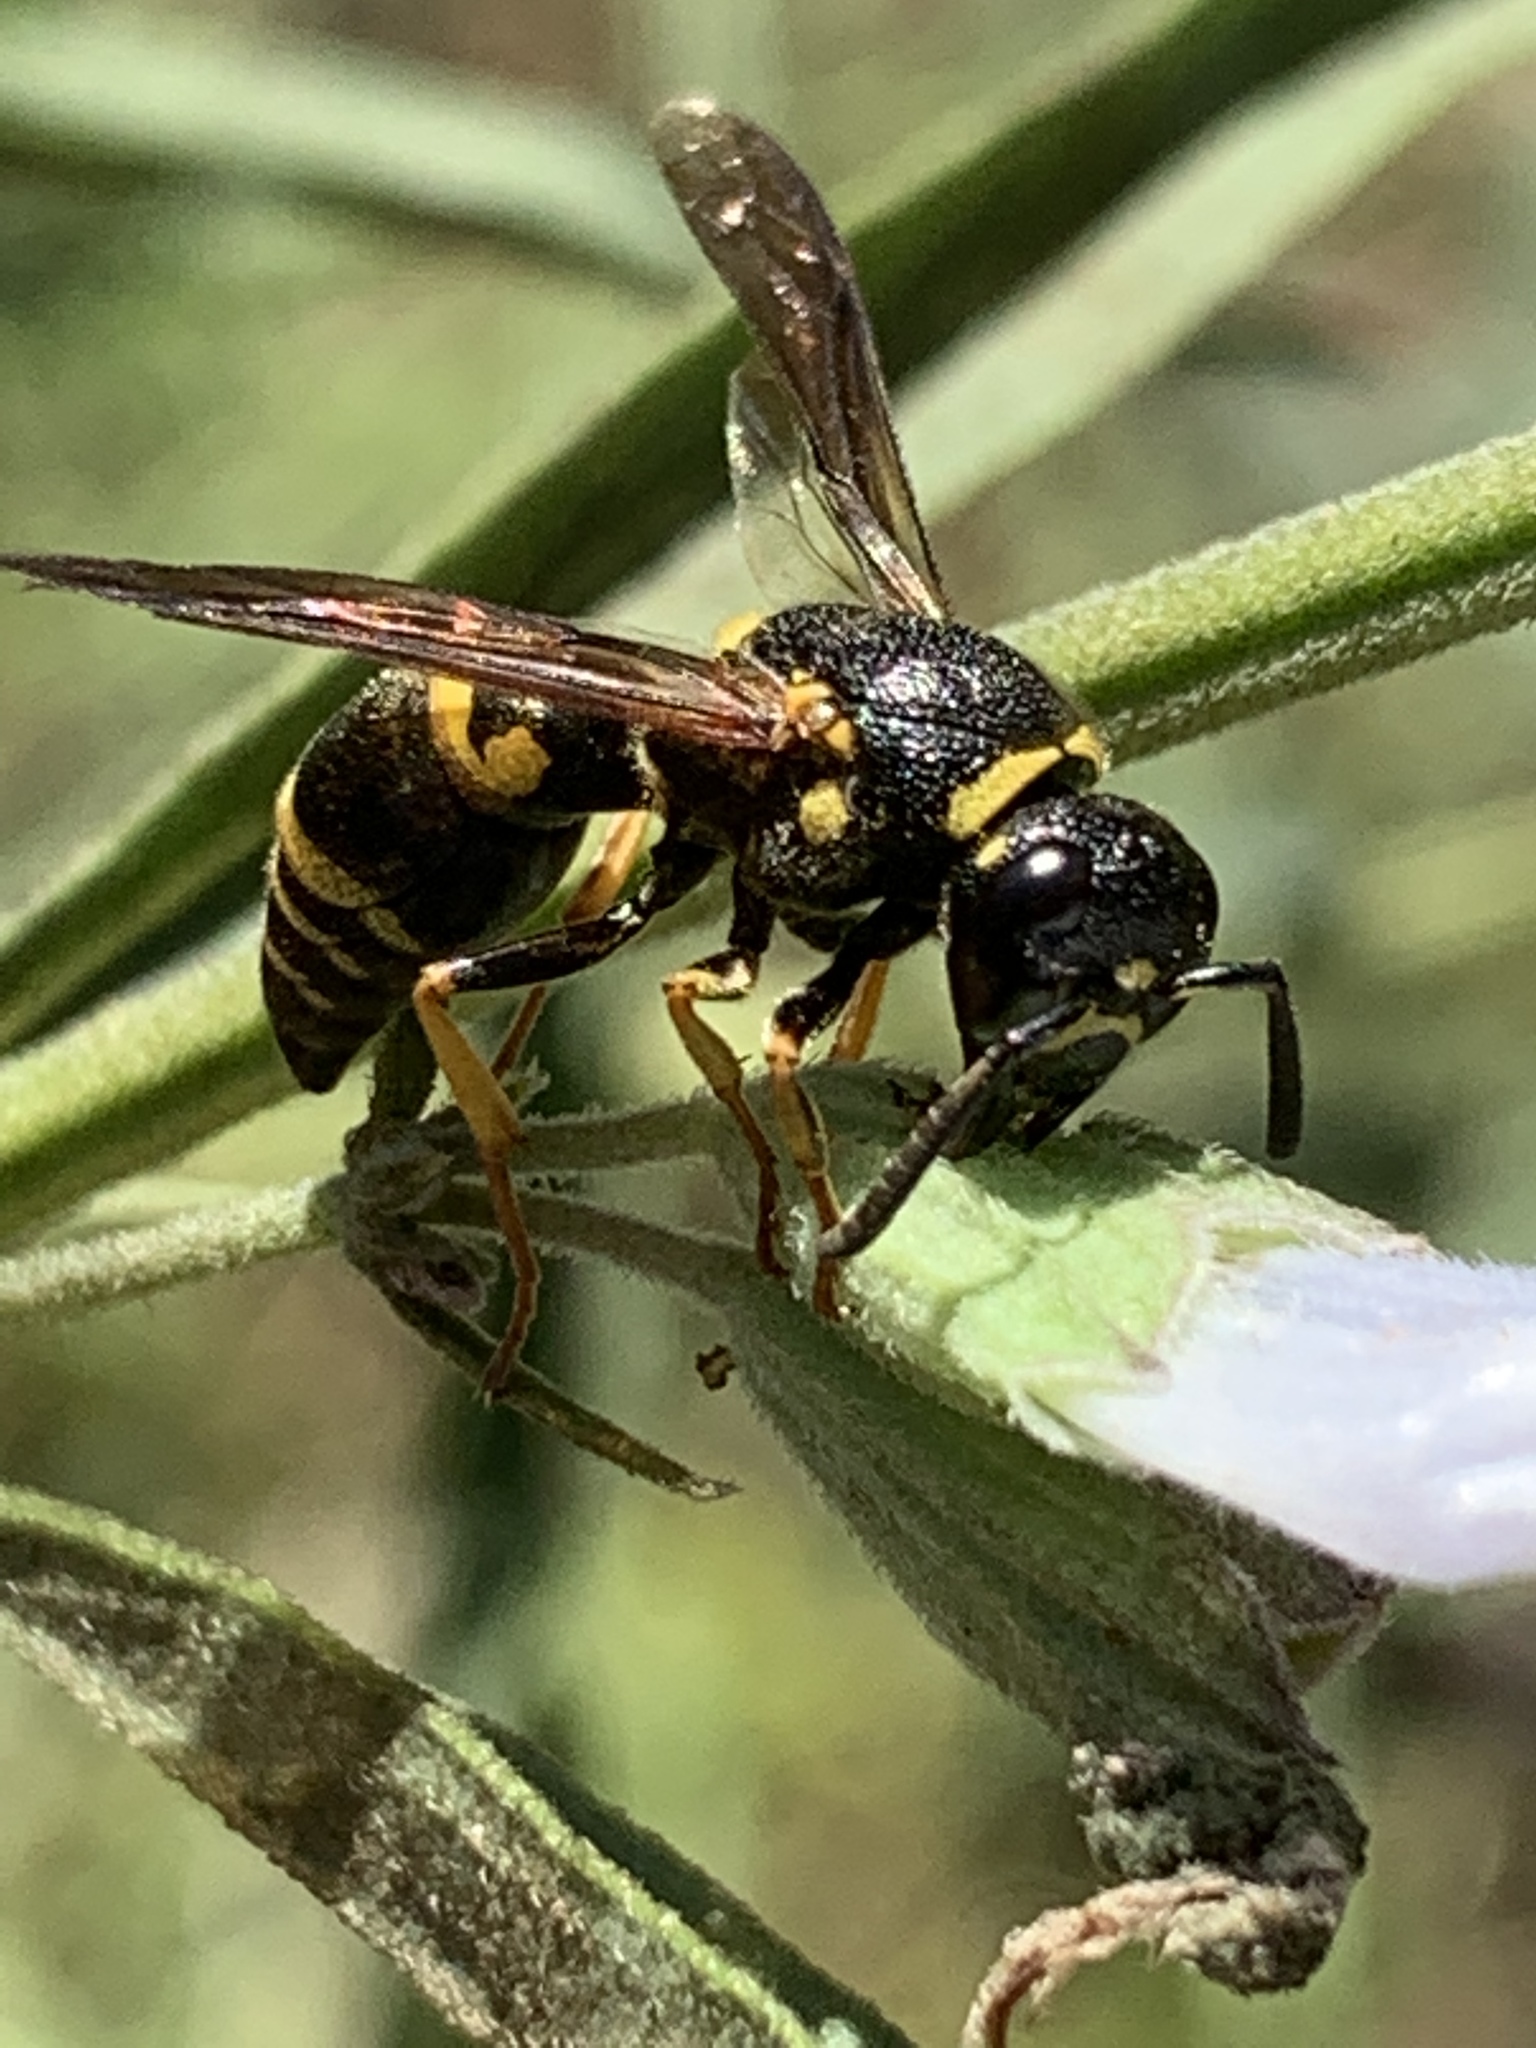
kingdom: Animalia
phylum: Arthropoda
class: Insecta
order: Hymenoptera
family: Eumenidae
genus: Euodynerus
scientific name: Euodynerus foraminatus
